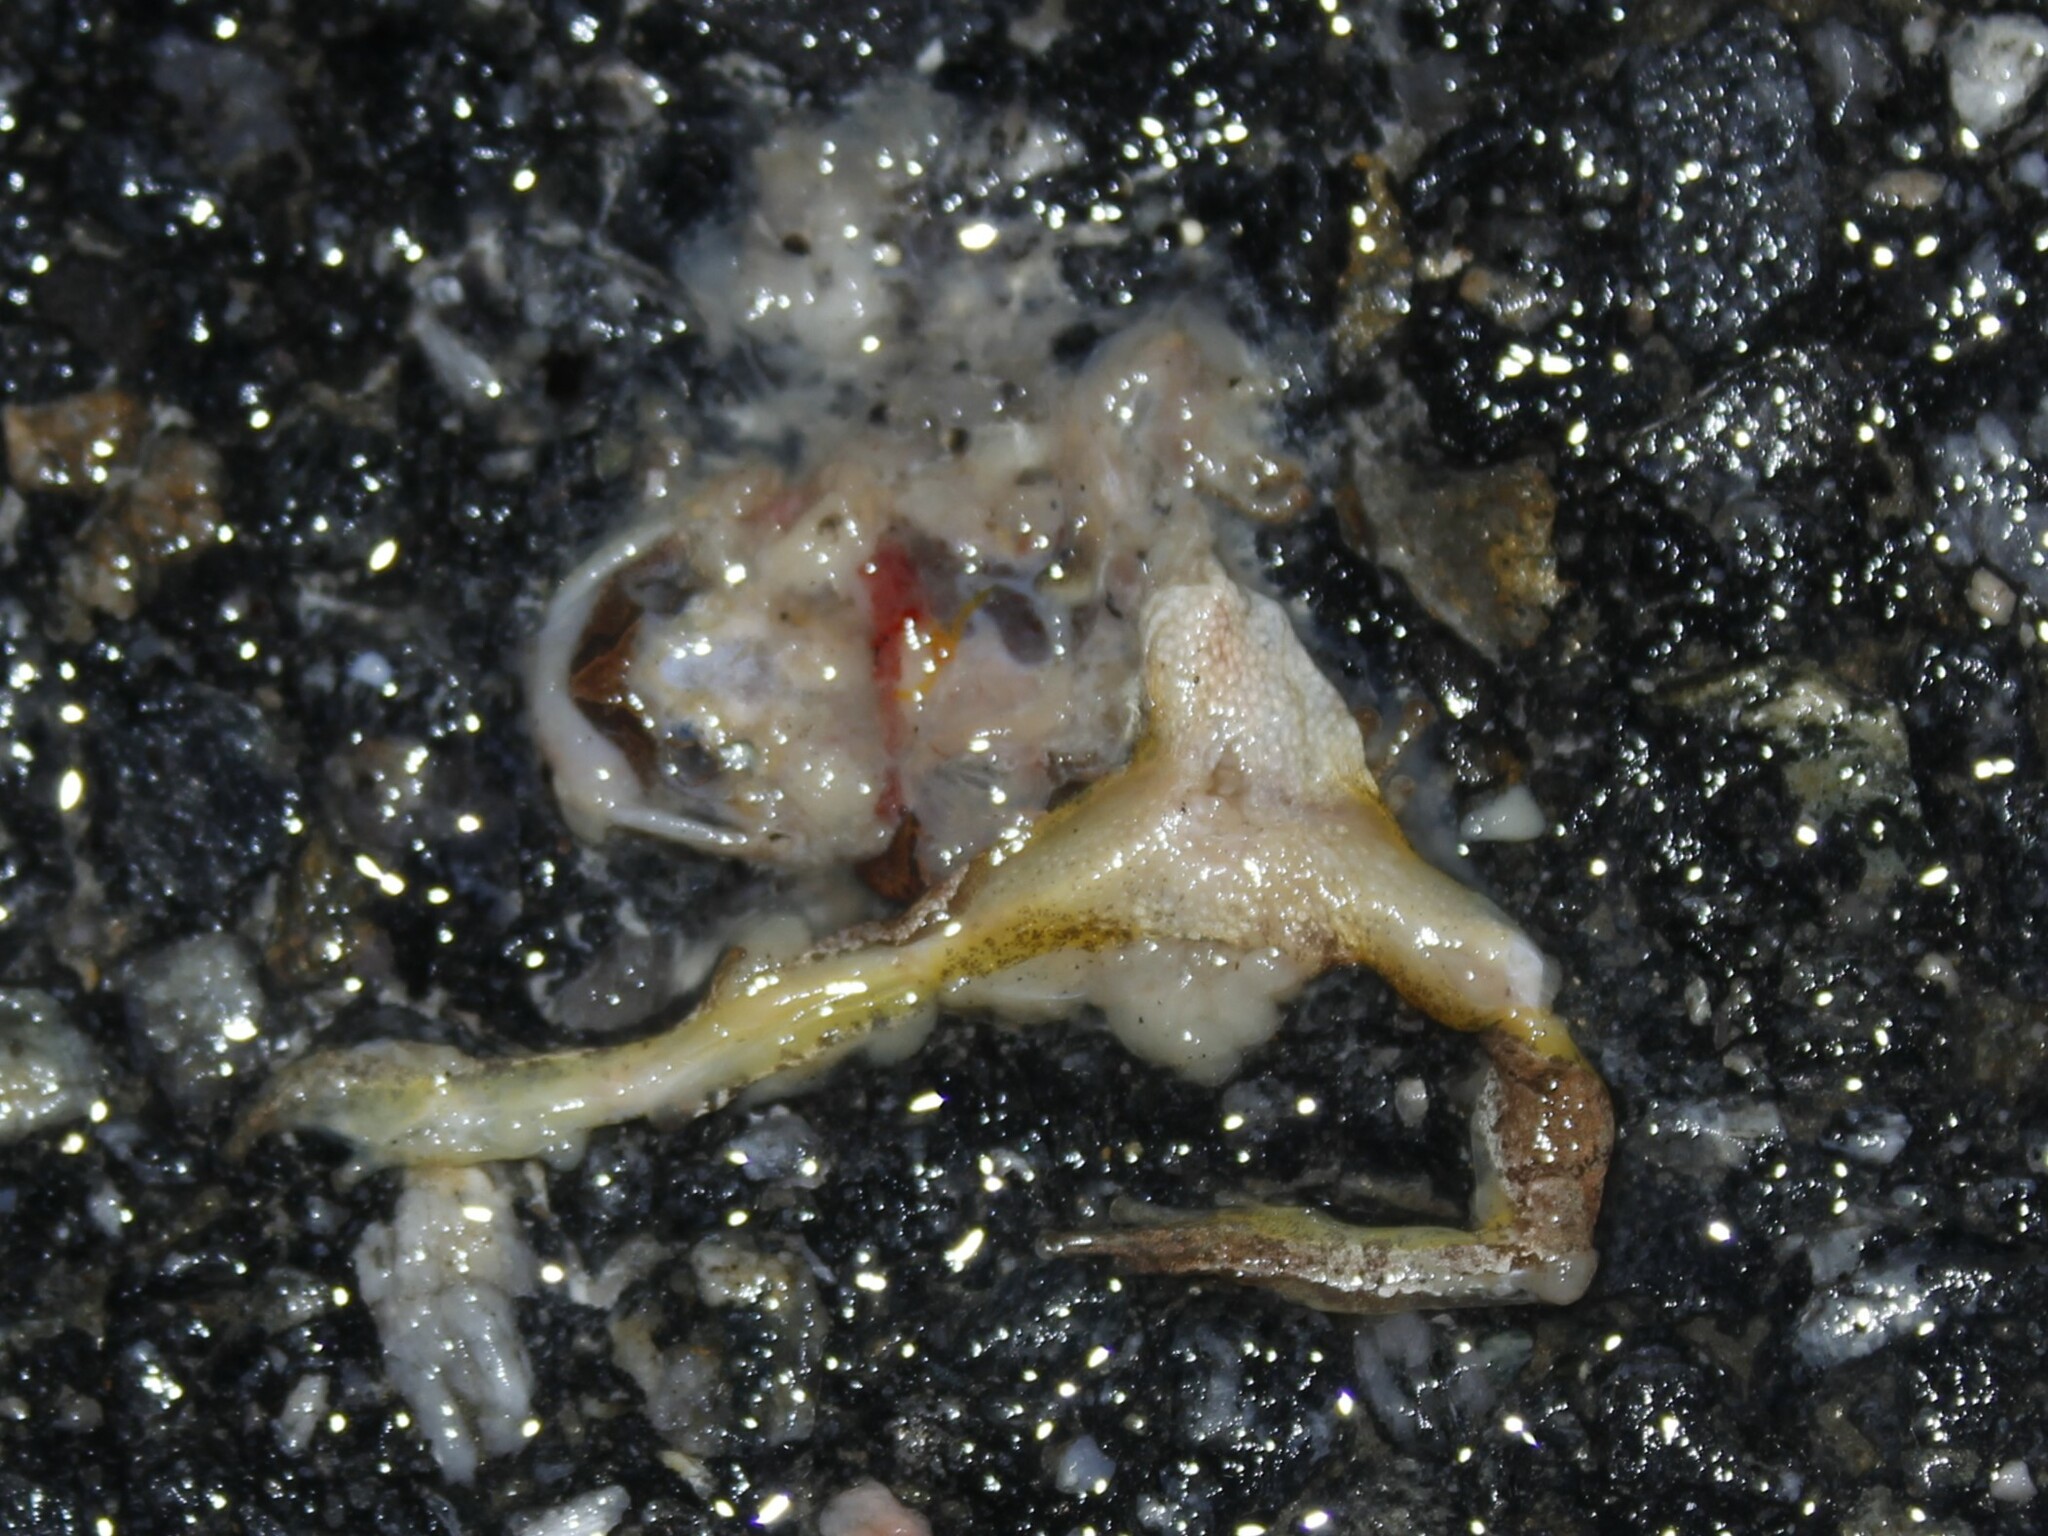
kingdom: Animalia
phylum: Chordata
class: Amphibia
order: Anura
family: Hylidae
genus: Pseudacris
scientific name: Pseudacris crucifer
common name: Spring peeper
